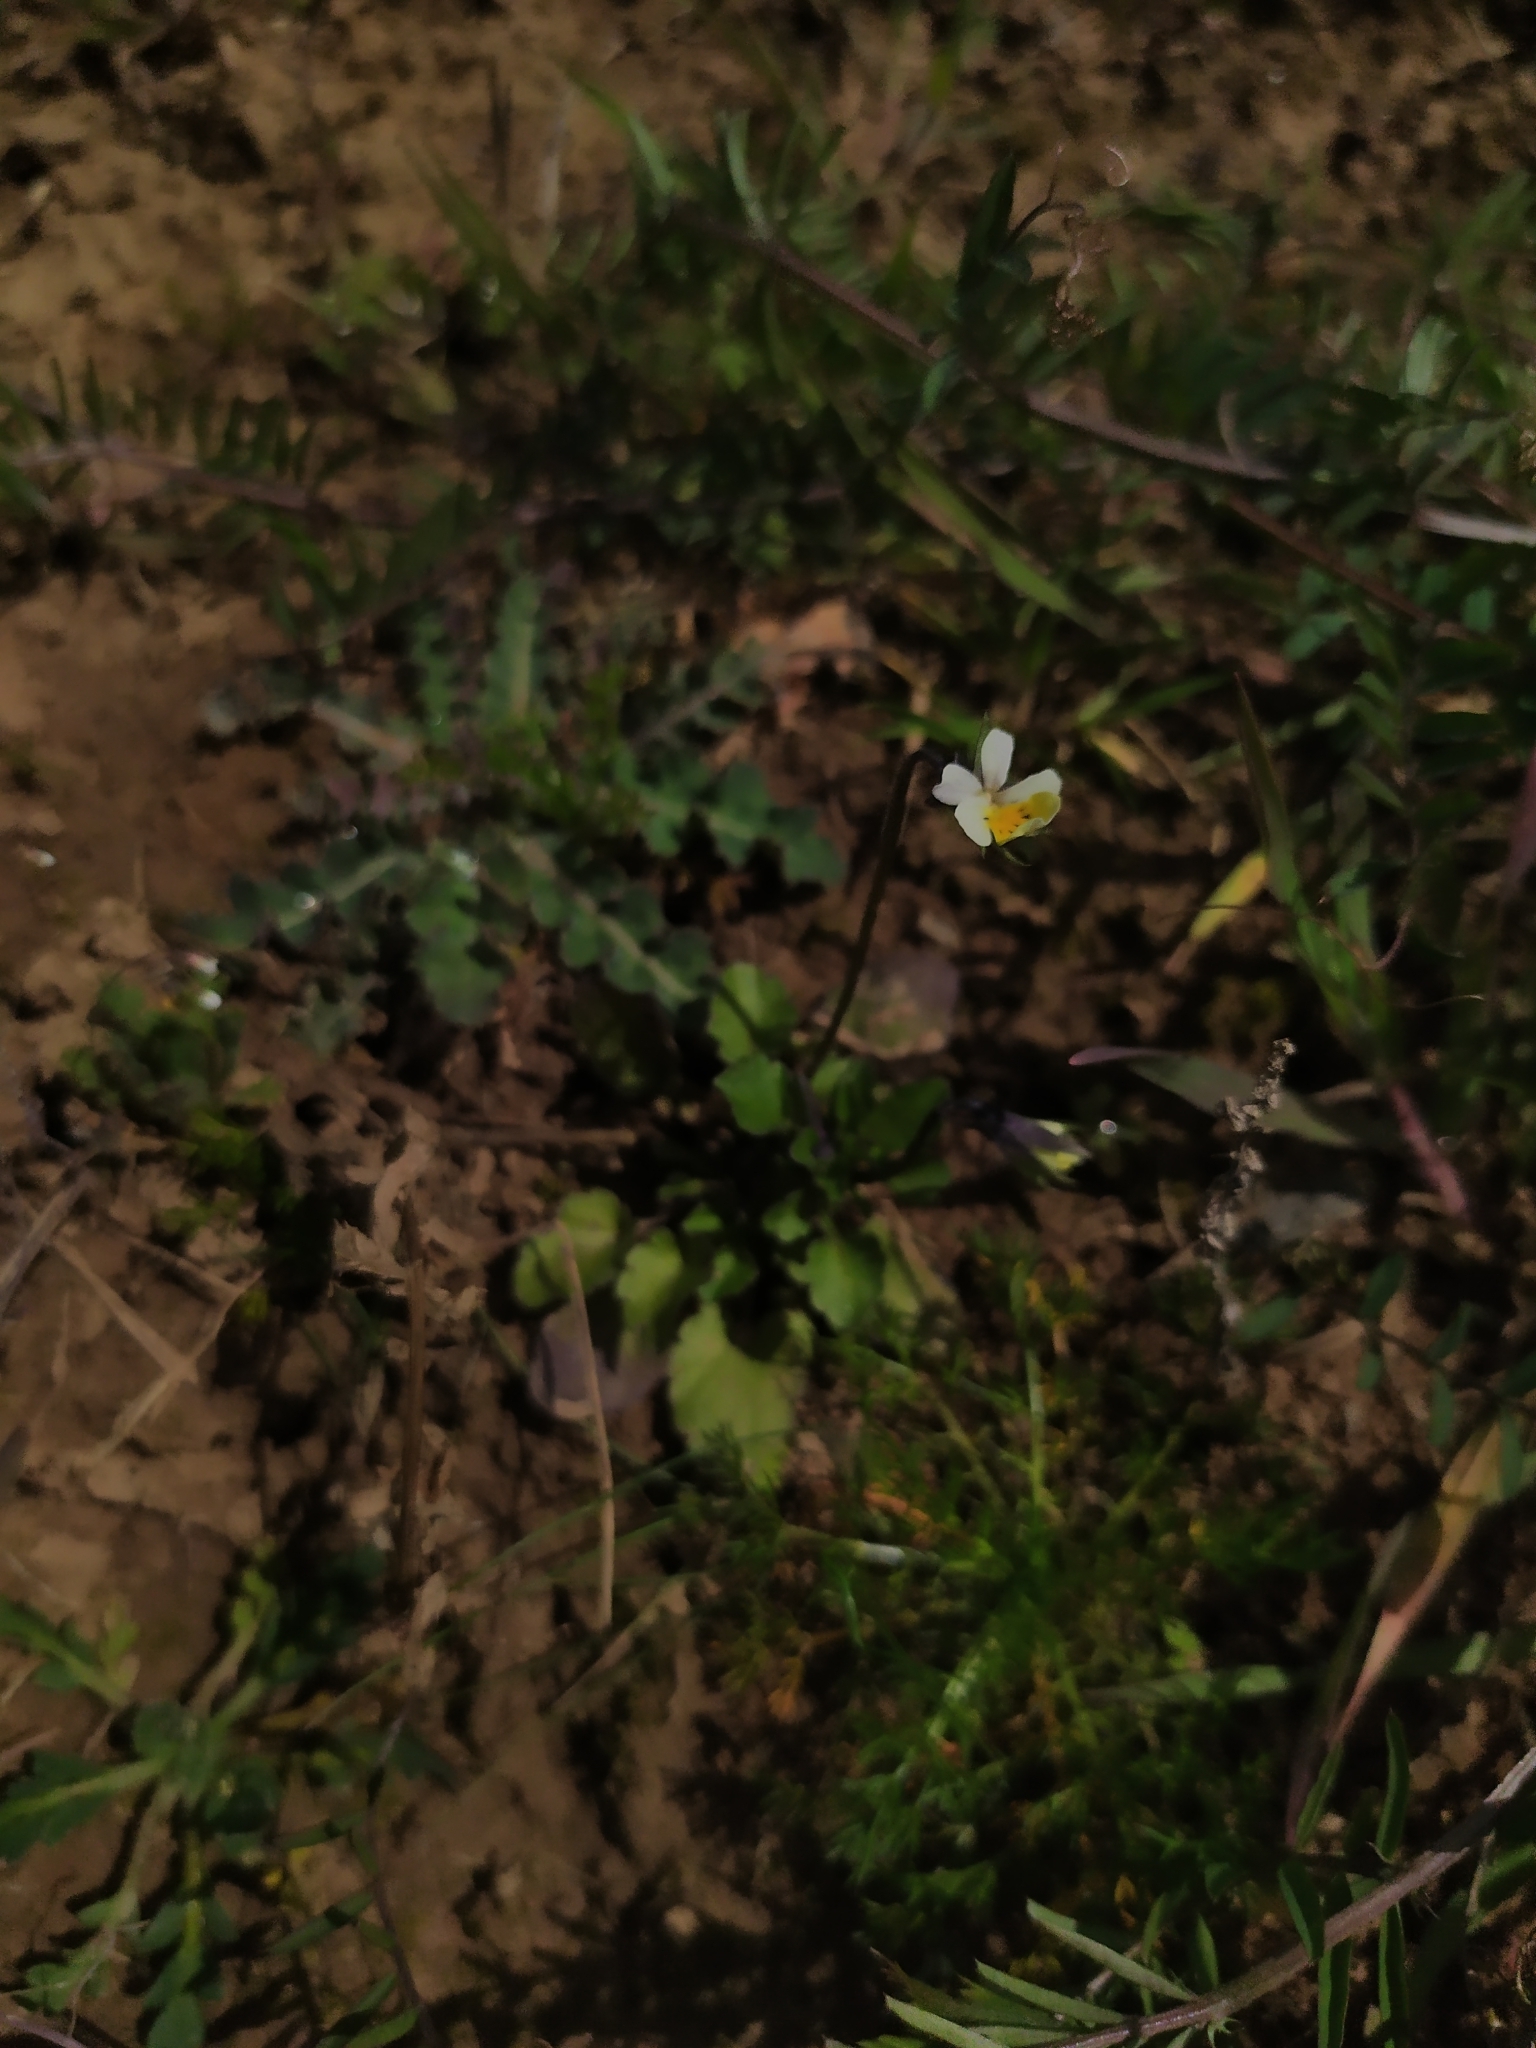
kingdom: Plantae
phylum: Tracheophyta
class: Magnoliopsida
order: Malpighiales
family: Violaceae
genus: Viola
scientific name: Viola arvensis
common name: Field pansy
